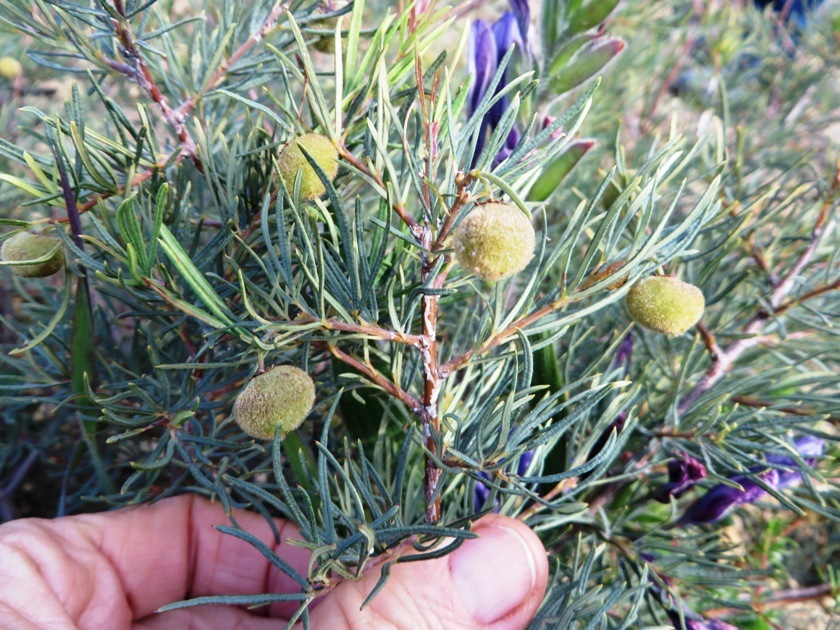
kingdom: Plantae
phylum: Tracheophyta
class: Magnoliopsida
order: Sapindales
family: Anacardiaceae
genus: Searsia
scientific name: Searsia rosmarinifolia
